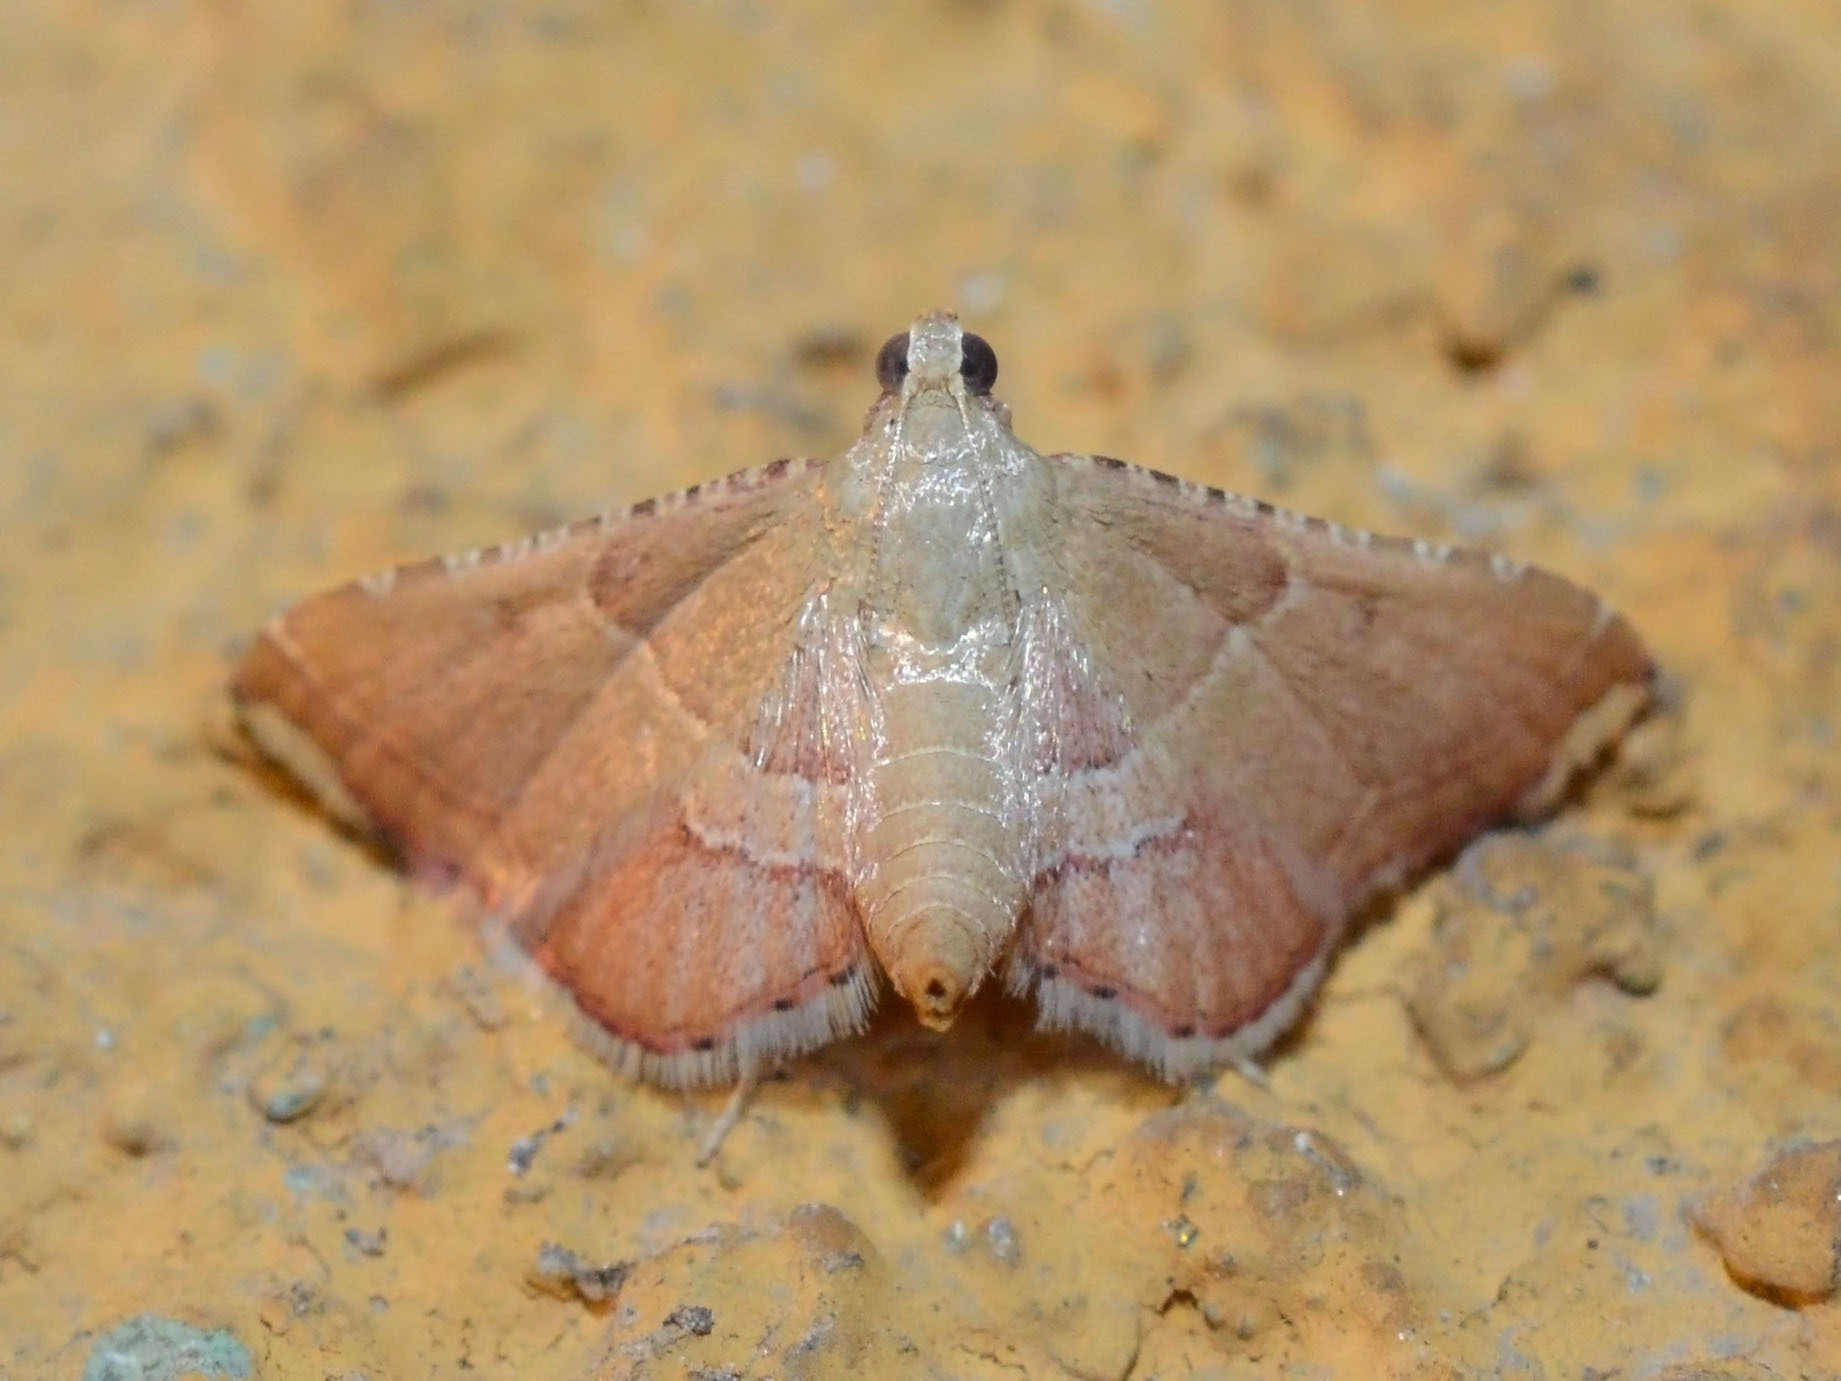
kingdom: Animalia
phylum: Arthropoda
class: Insecta
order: Lepidoptera
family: Pyralidae
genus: Endotricha
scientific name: Endotricha flammealis
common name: Rosy tabby
